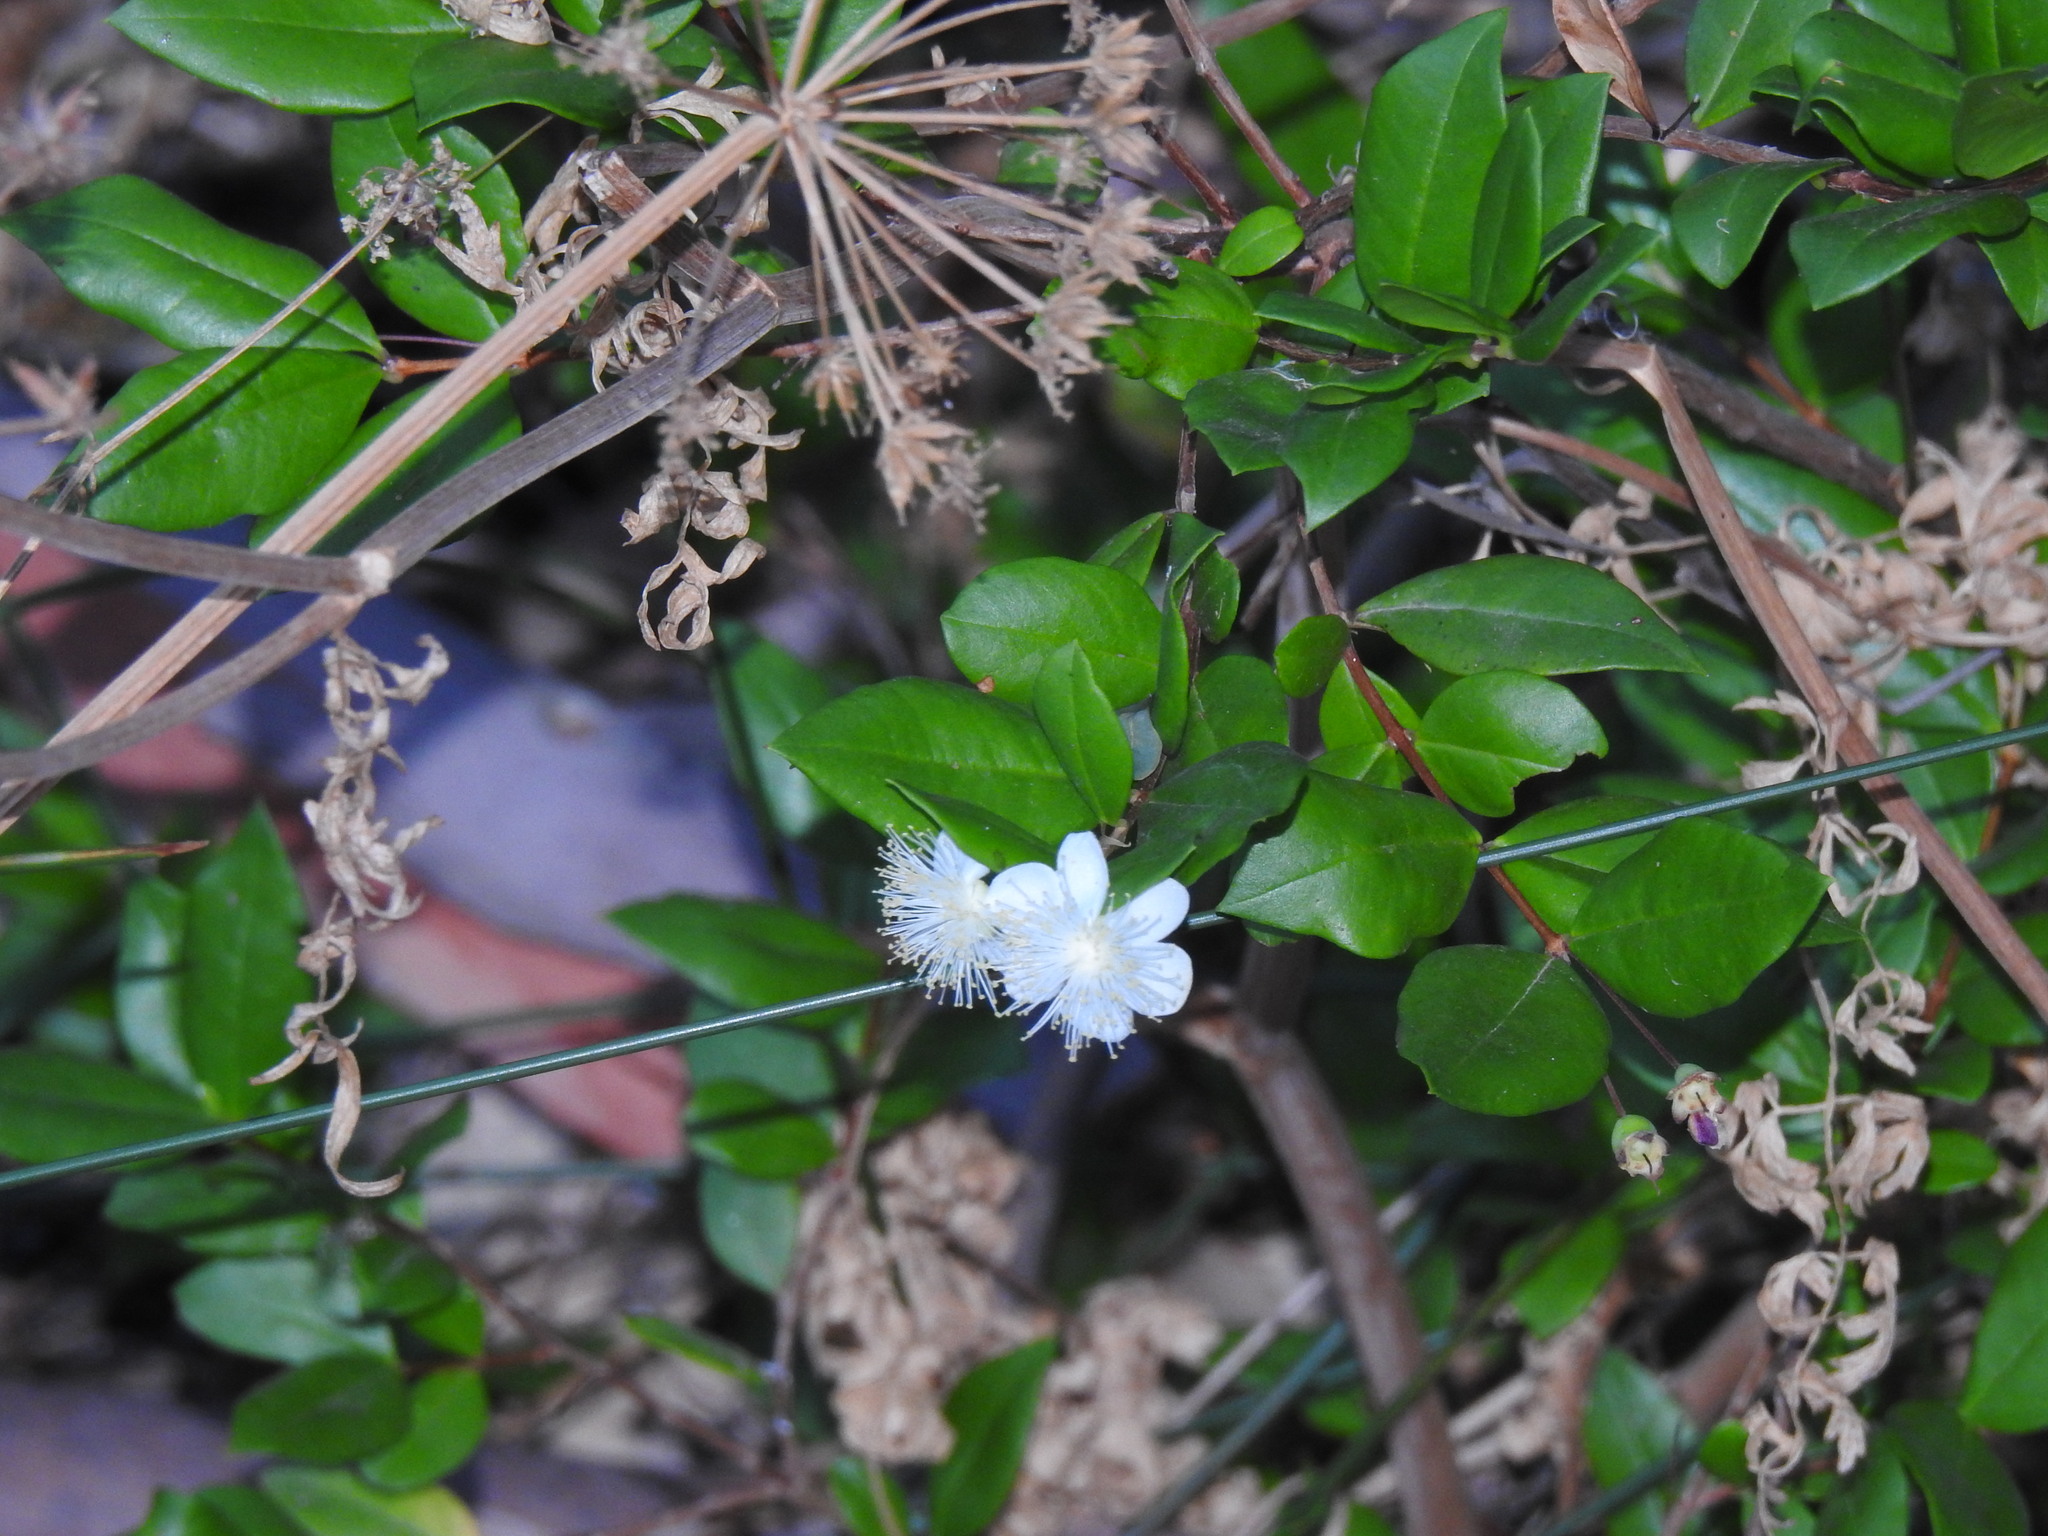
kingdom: Plantae
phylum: Tracheophyta
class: Magnoliopsida
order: Myrtales
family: Myrtaceae
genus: Myrtus
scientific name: Myrtus communis
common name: Myrtle
